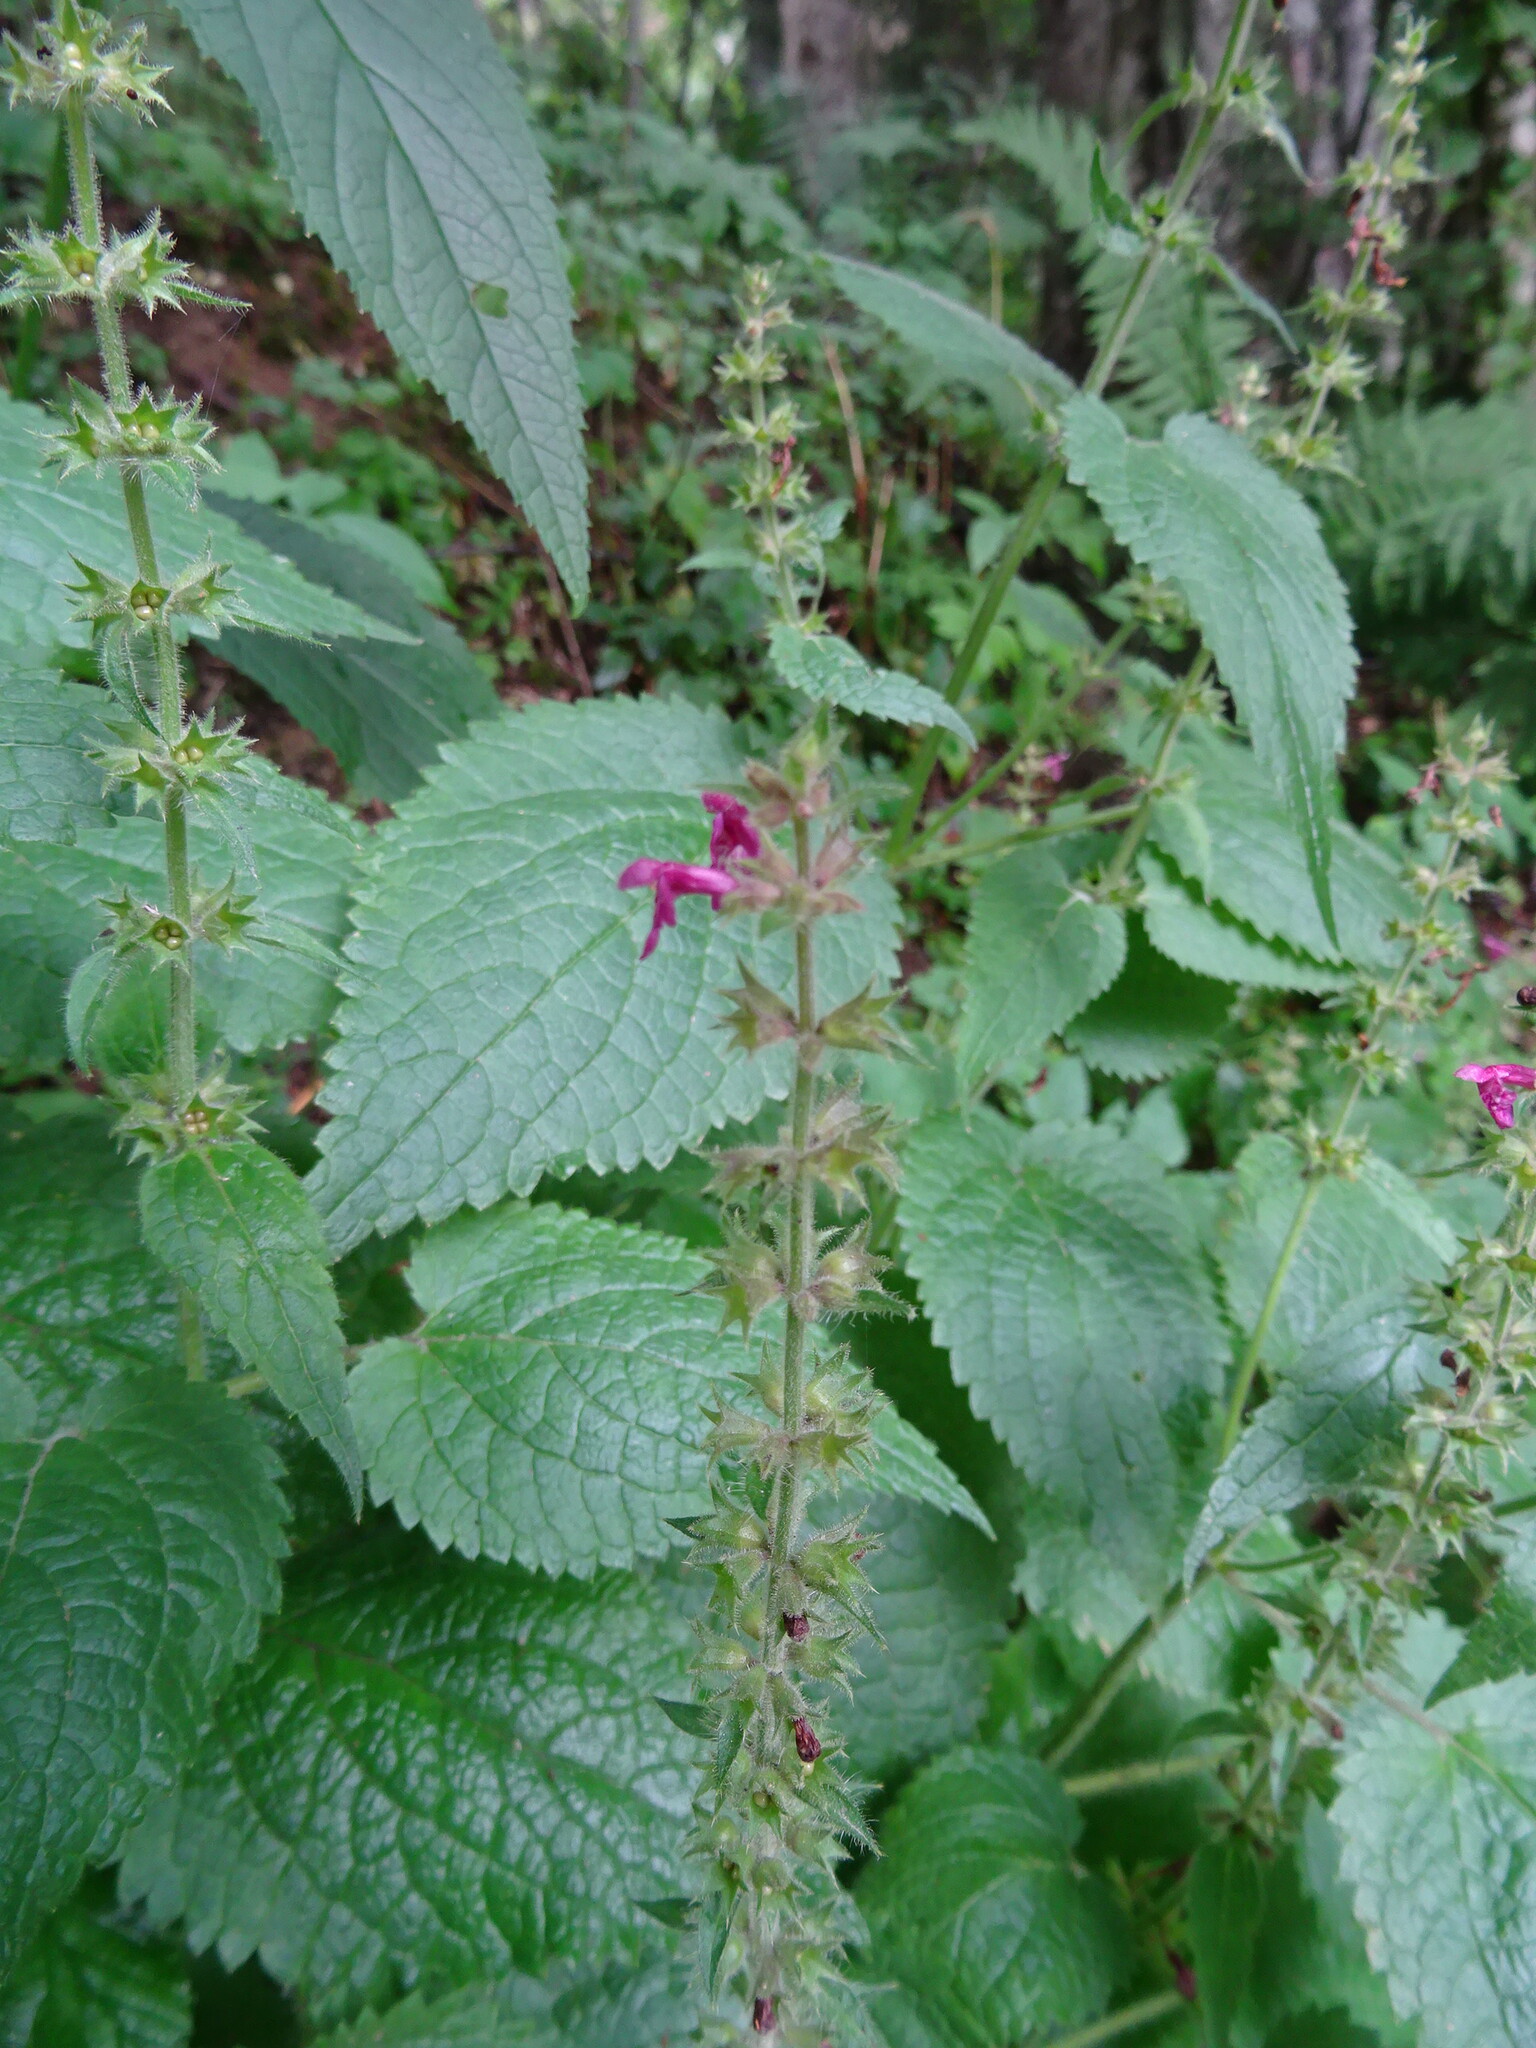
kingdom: Plantae
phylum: Tracheophyta
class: Magnoliopsida
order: Lamiales
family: Lamiaceae
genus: Stachys
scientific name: Stachys sylvatica
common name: Hedge woundwort
